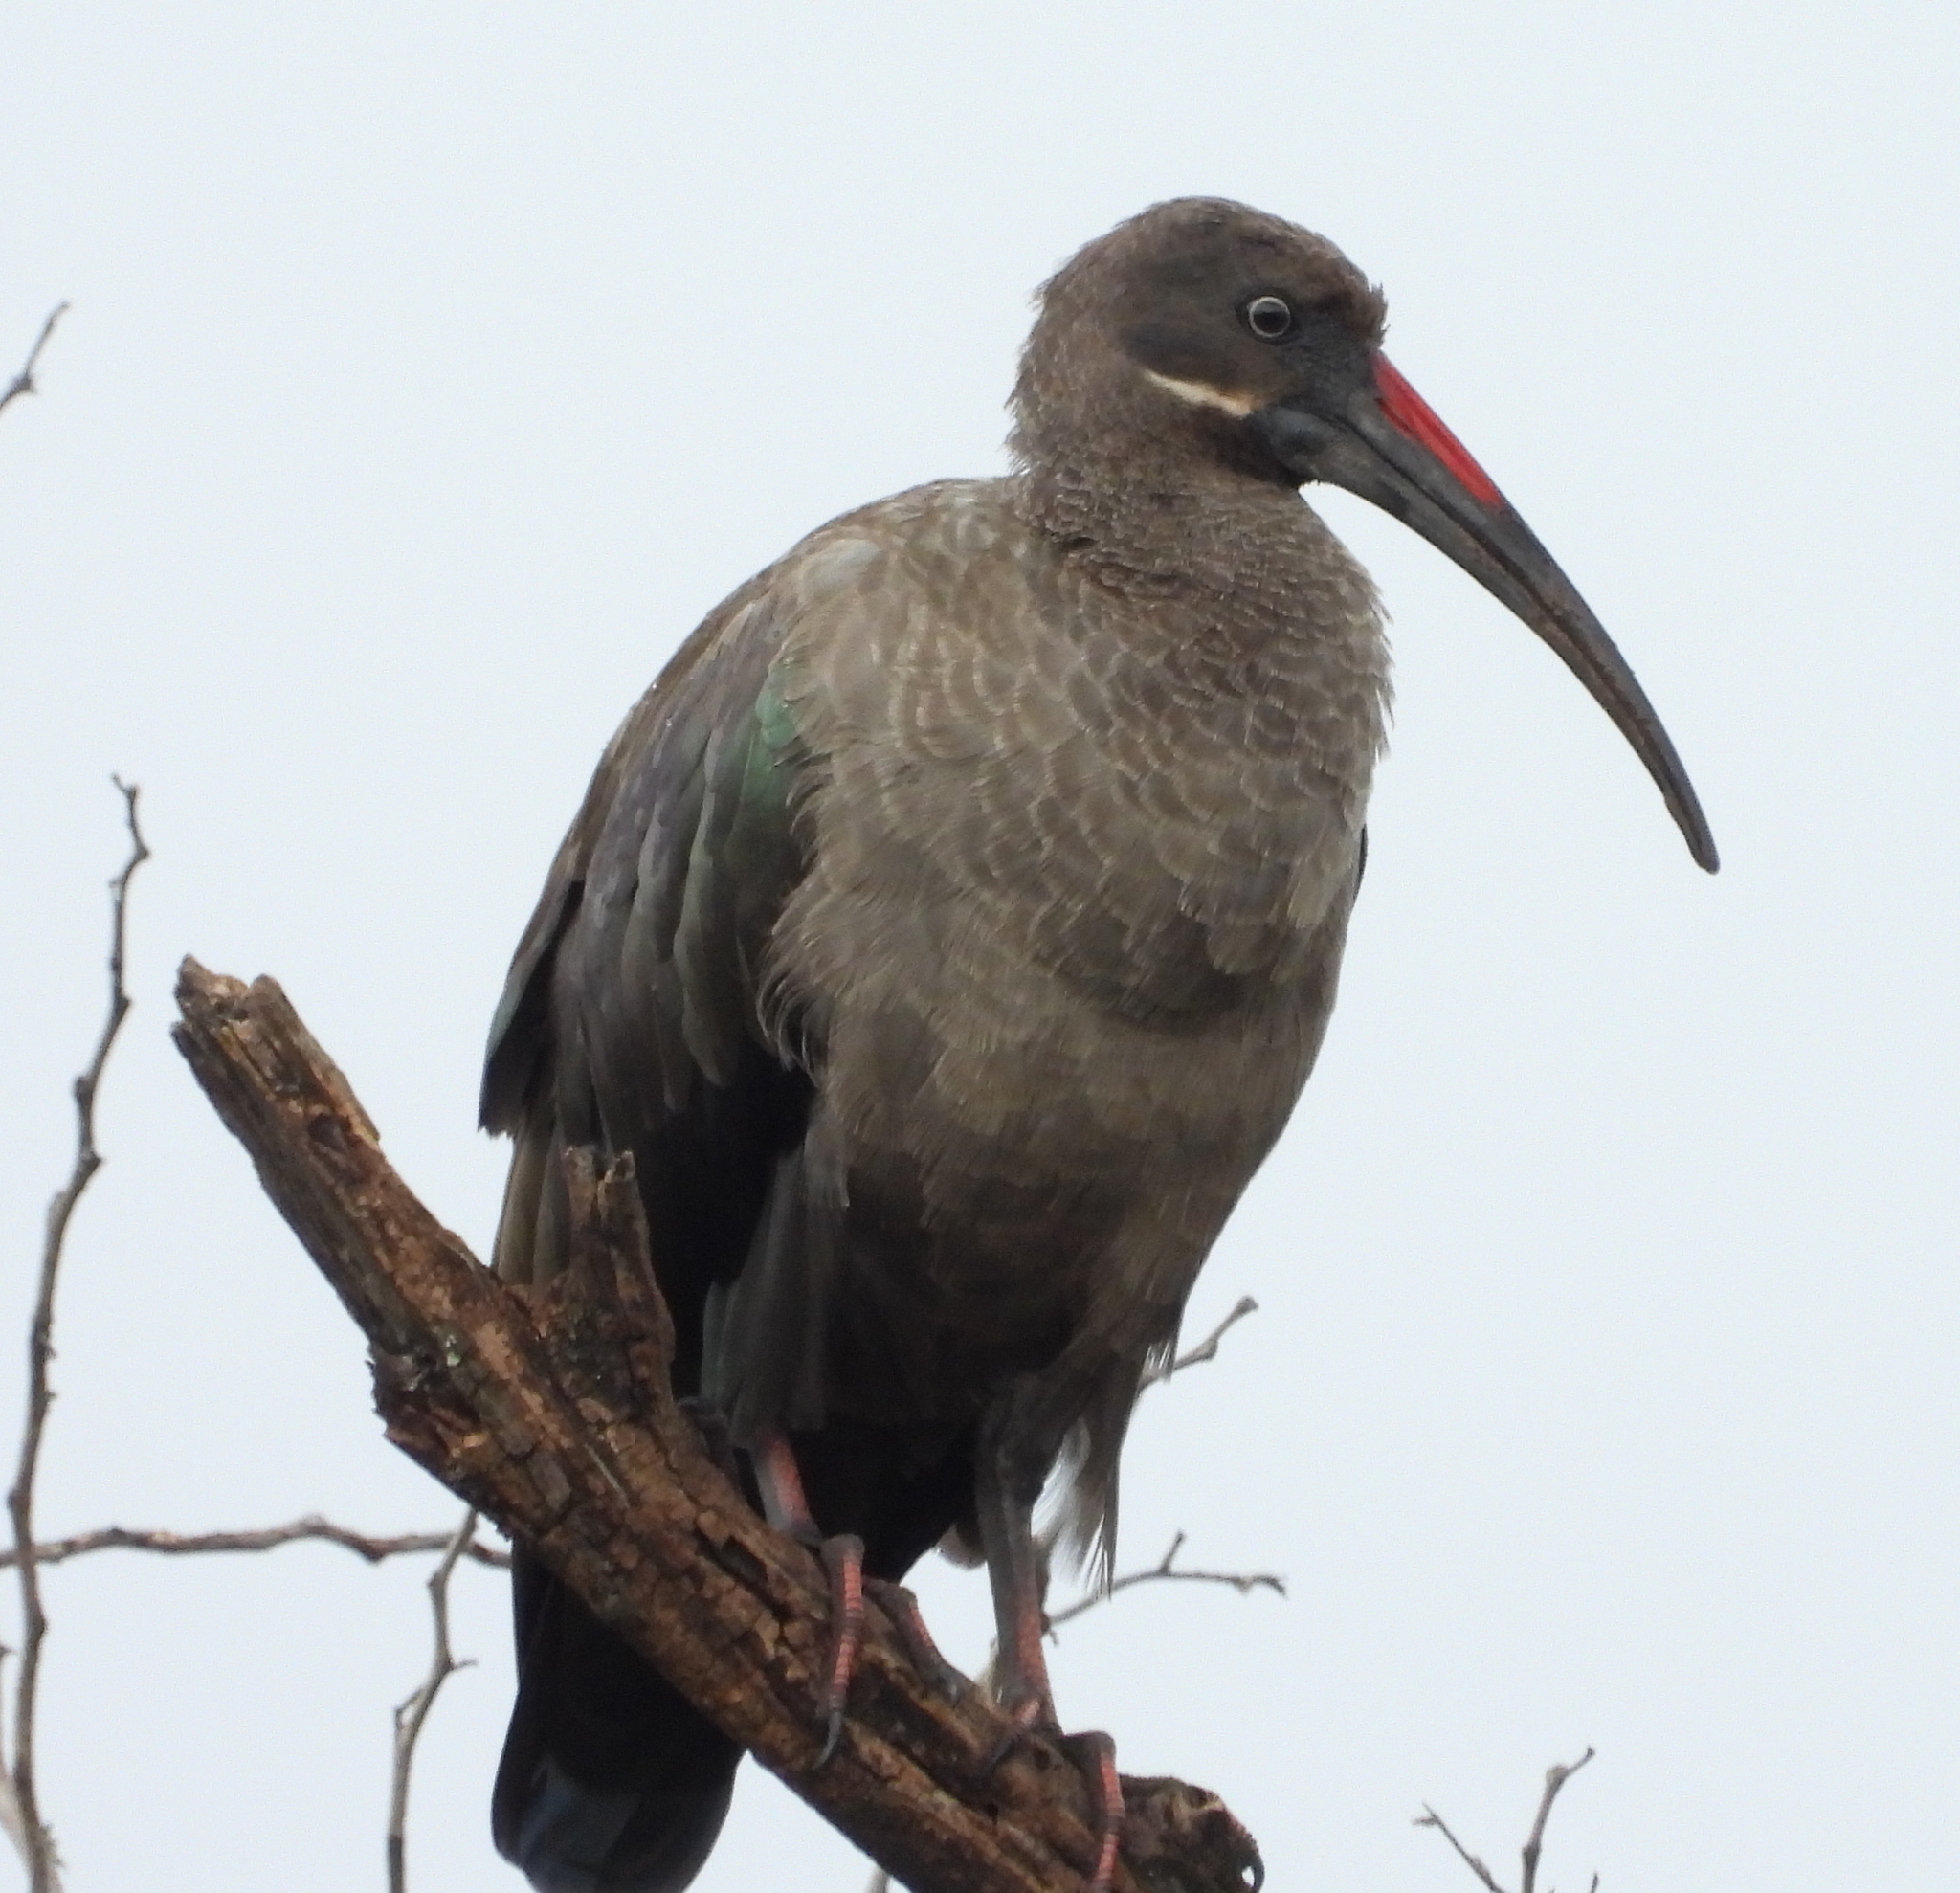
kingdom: Animalia
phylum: Chordata
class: Aves
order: Pelecaniformes
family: Threskiornithidae
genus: Bostrychia
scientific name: Bostrychia hagedash
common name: Hadada ibis
